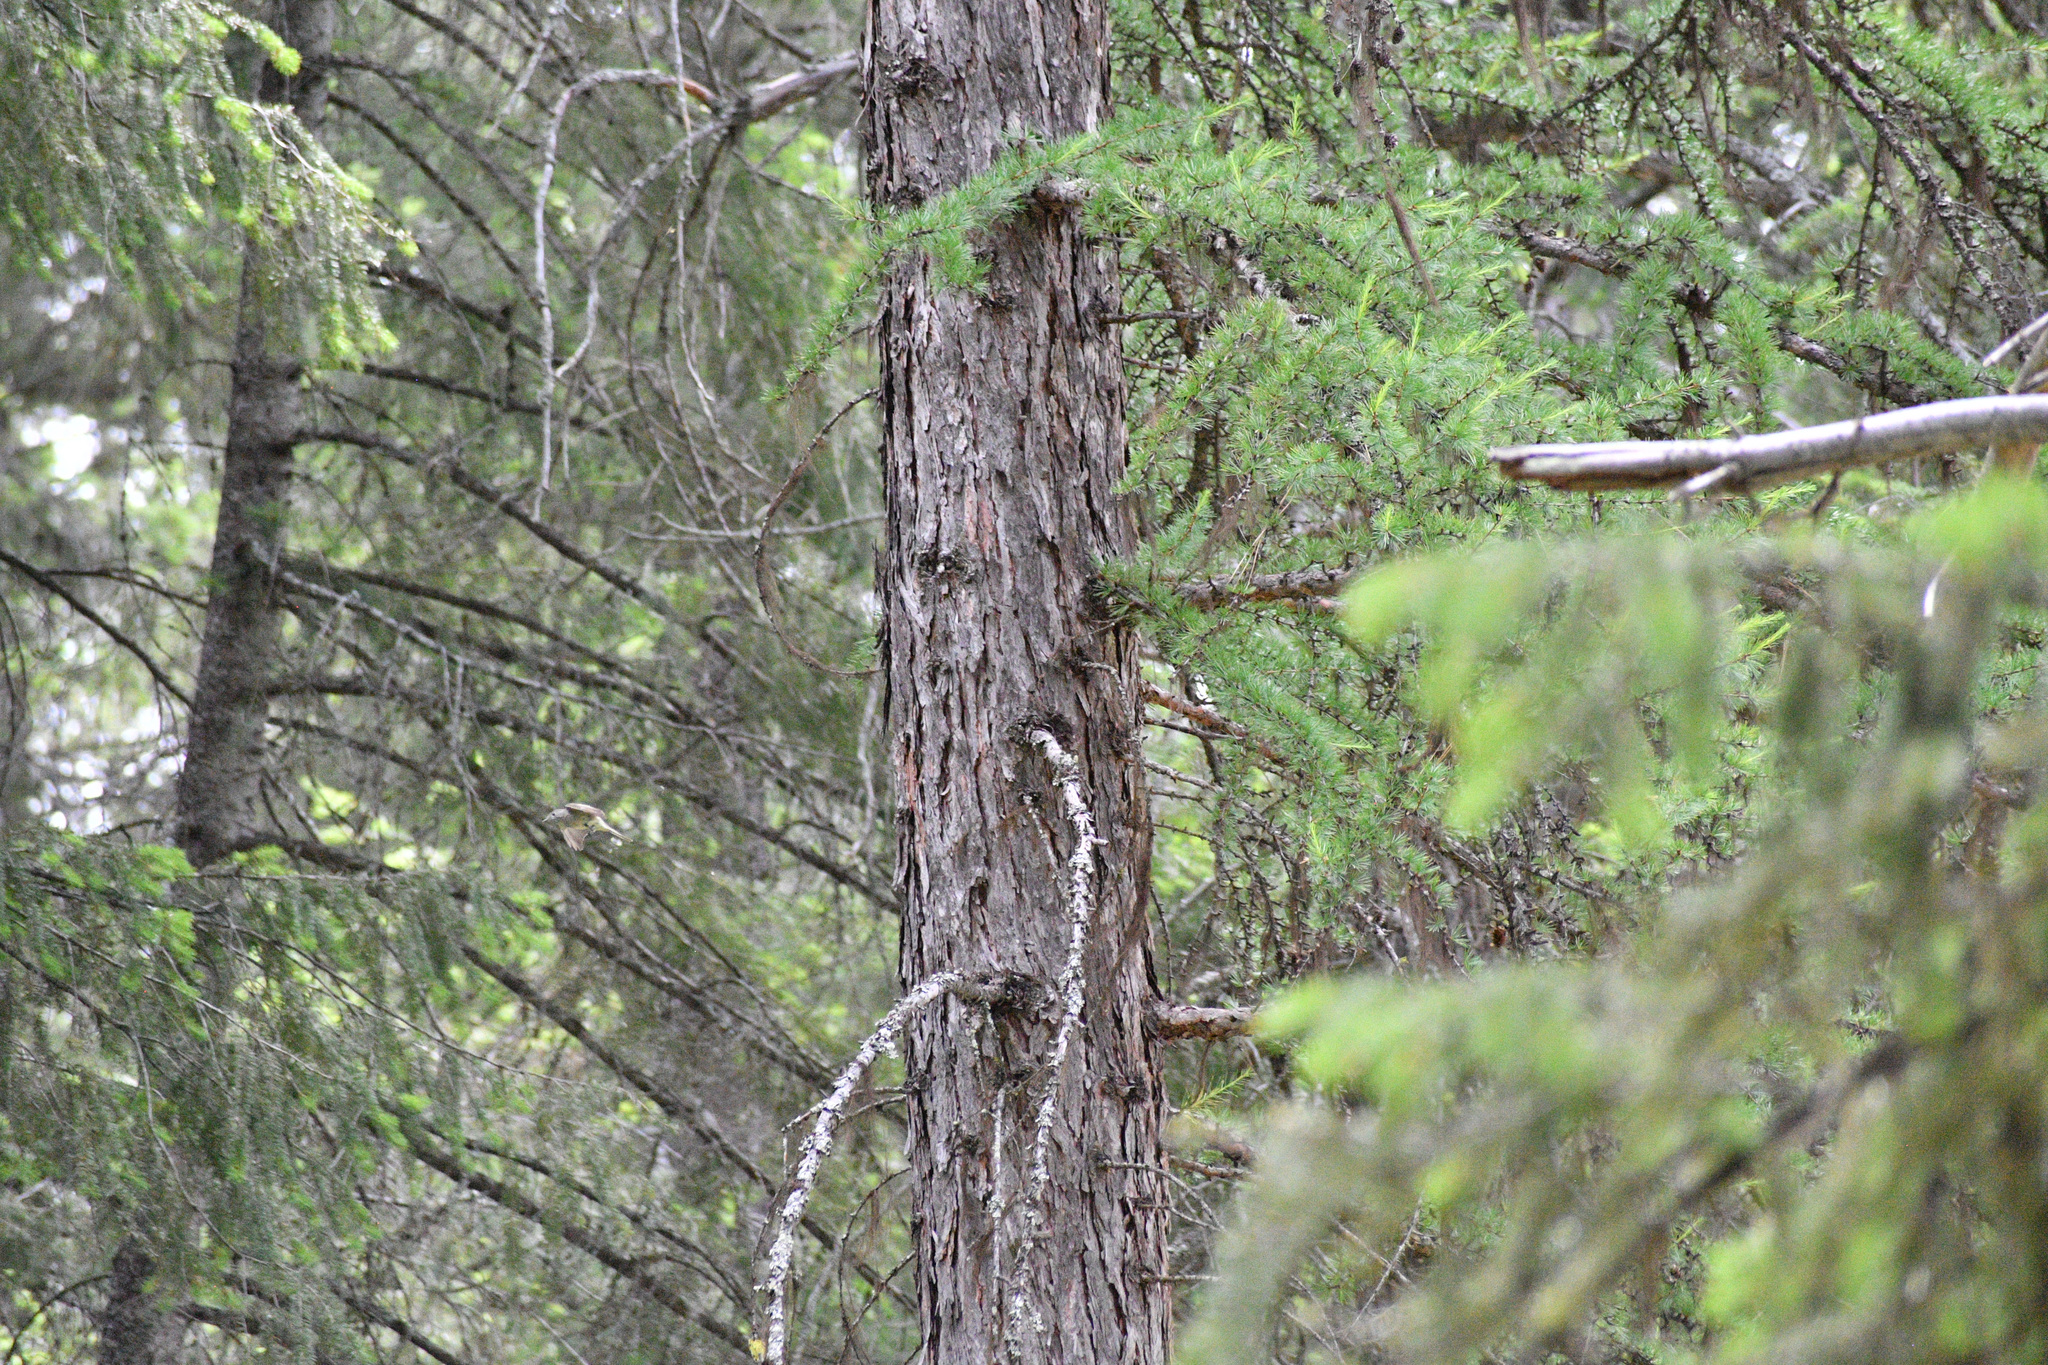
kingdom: Plantae
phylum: Tracheophyta
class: Pinopsida
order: Pinales
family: Pinaceae
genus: Larix
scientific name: Larix occidentalis
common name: Western larch
